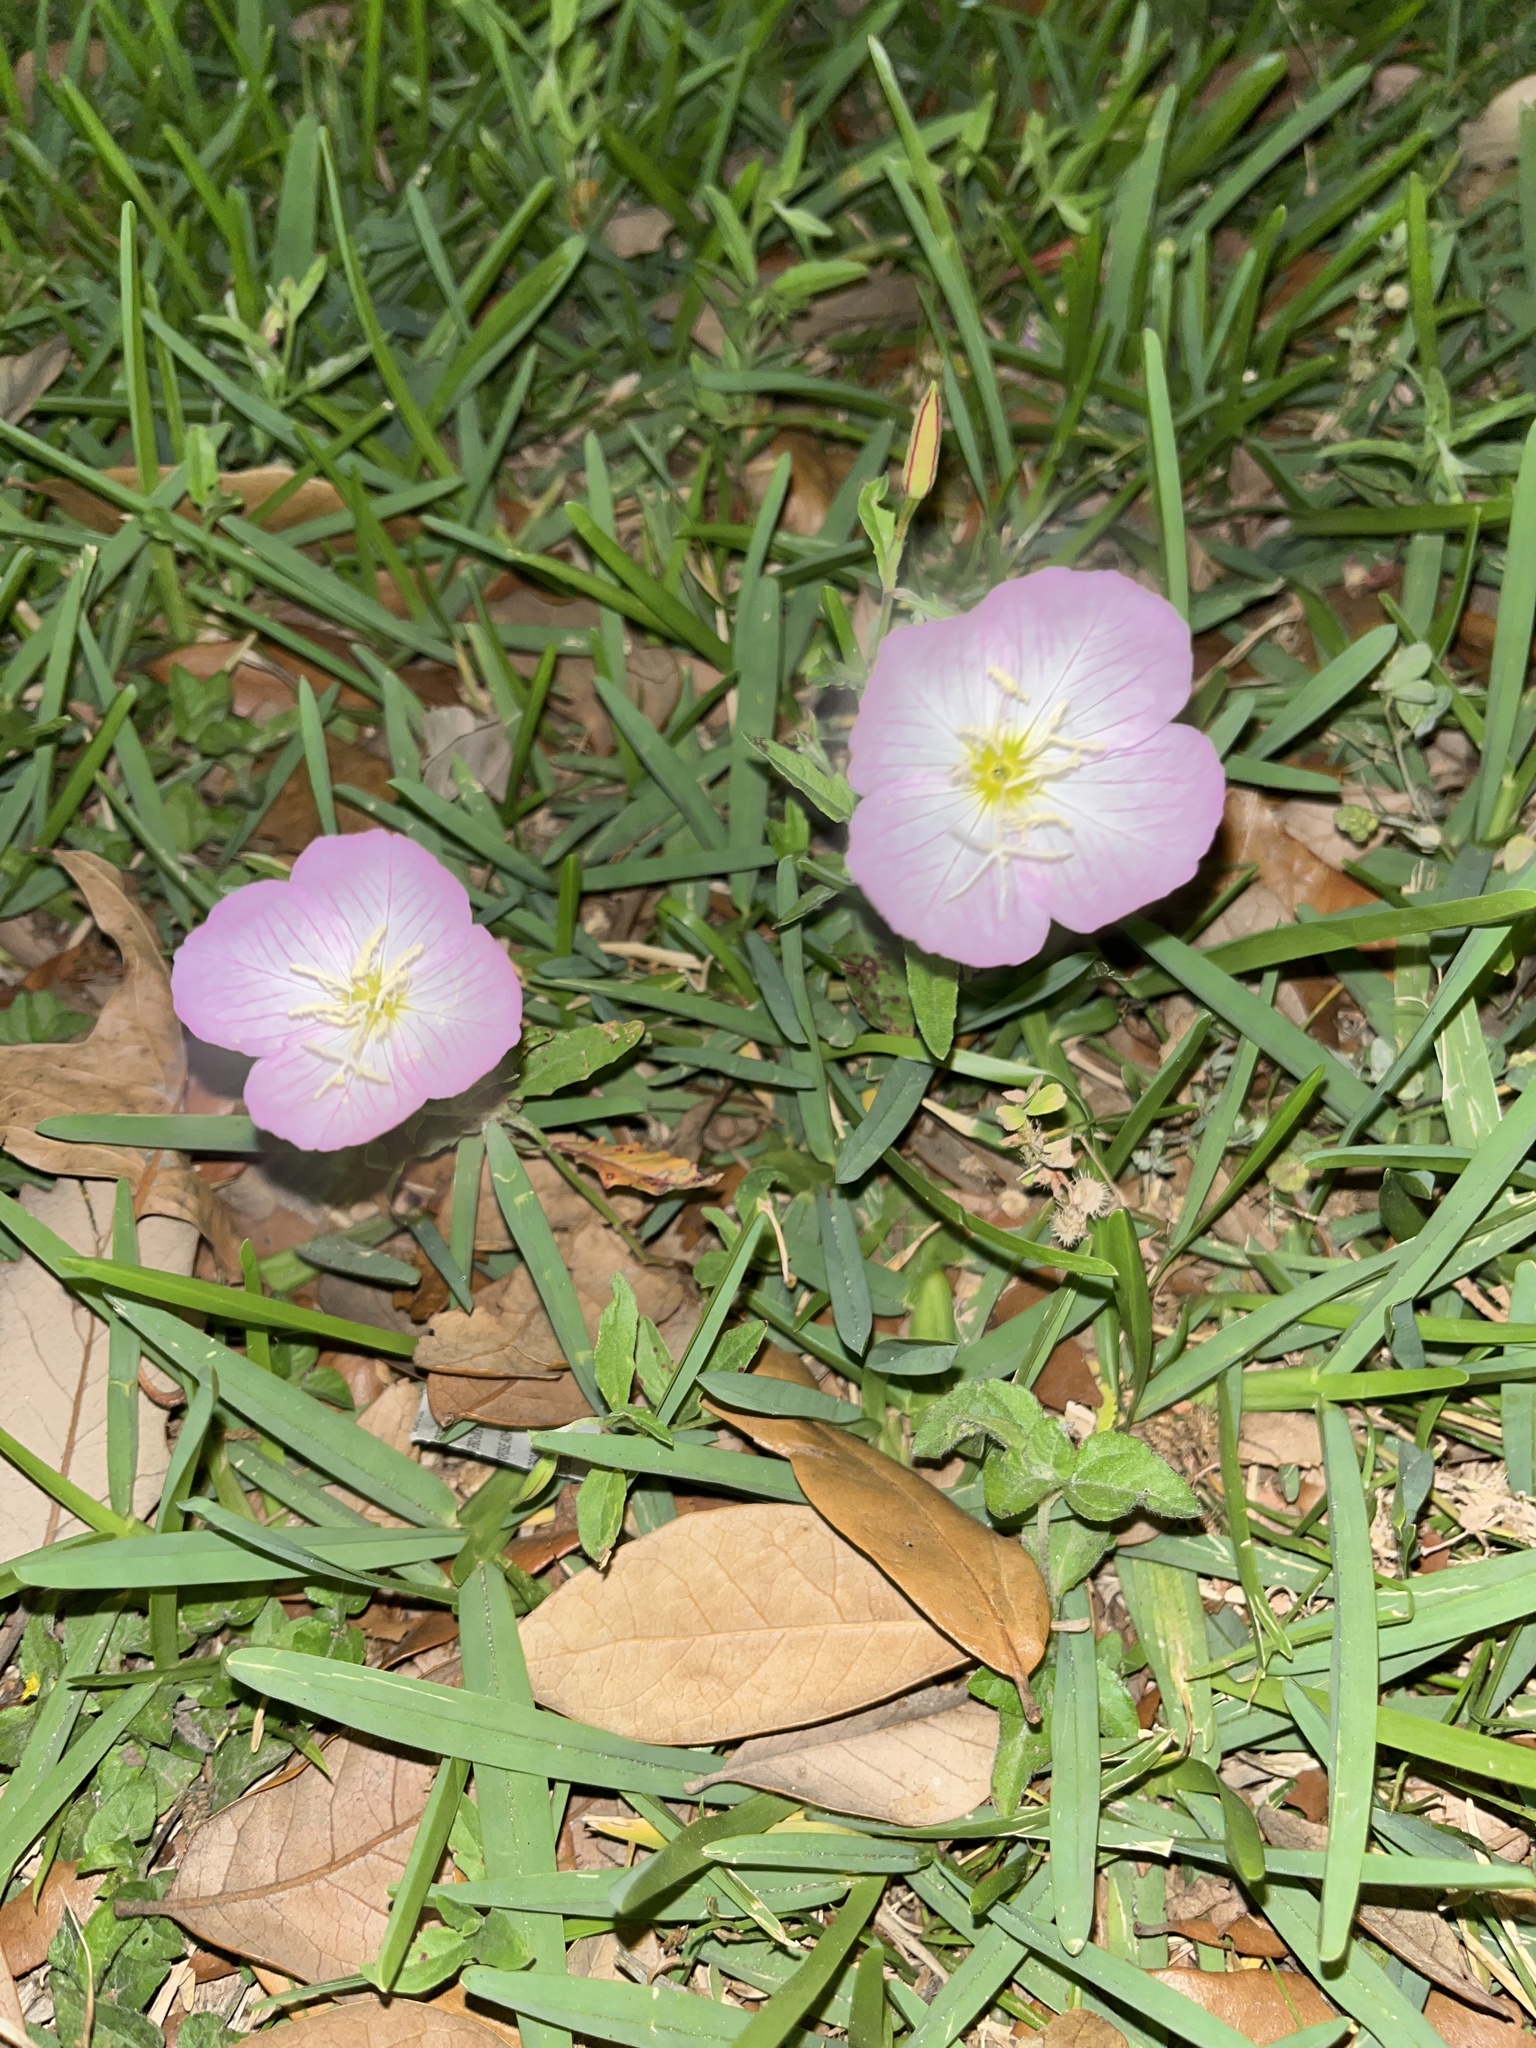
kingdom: Plantae
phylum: Tracheophyta
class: Magnoliopsida
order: Myrtales
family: Onagraceae
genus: Oenothera
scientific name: Oenothera speciosa
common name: White evening-primrose
